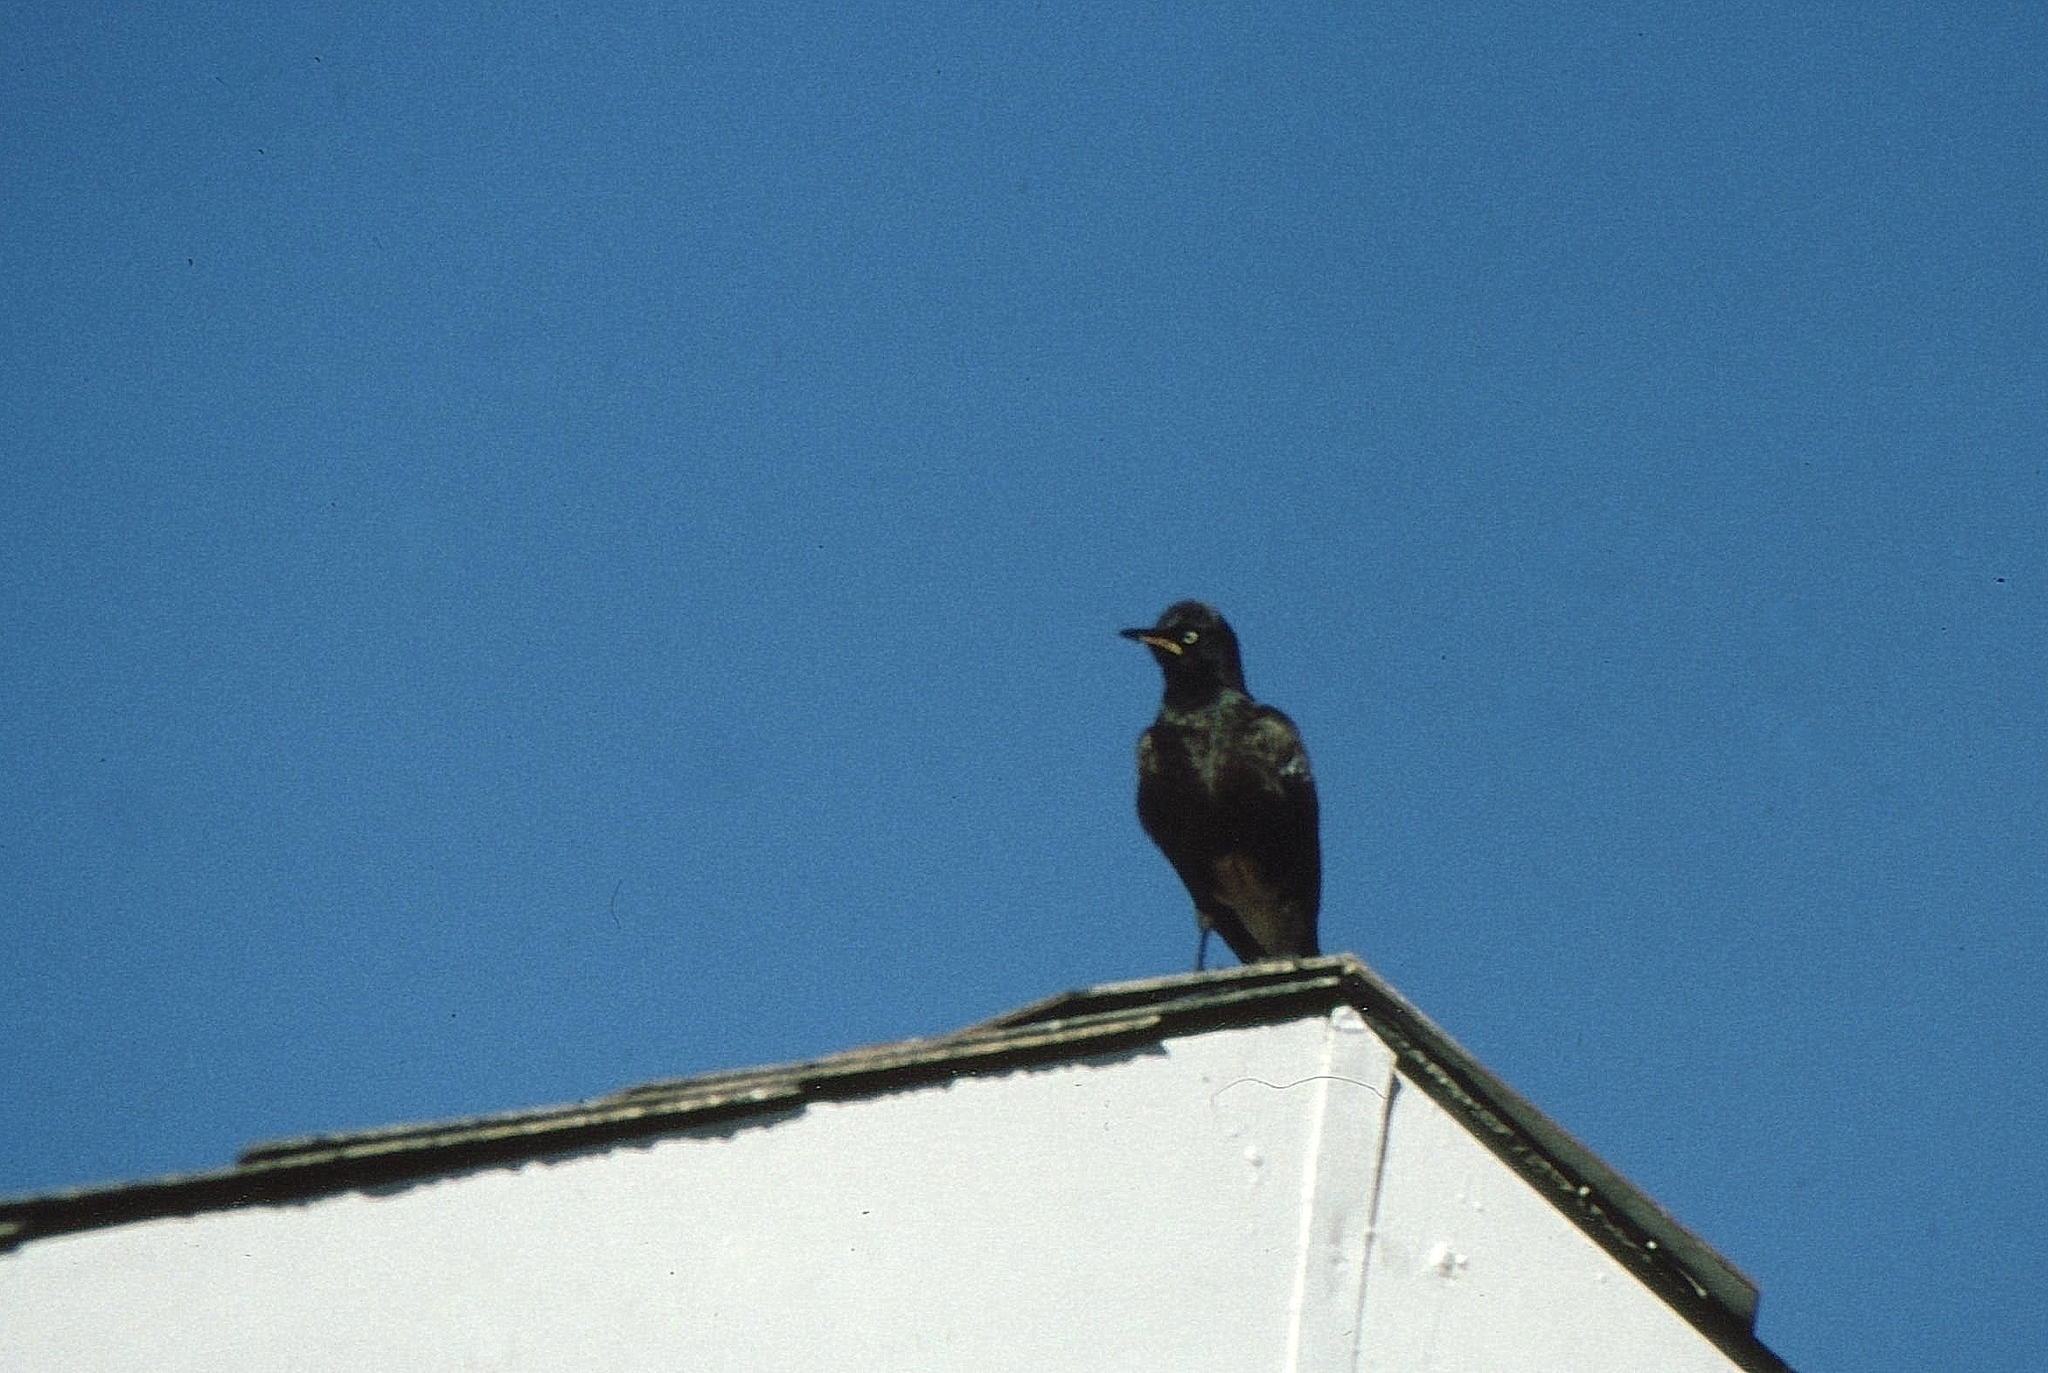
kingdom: Animalia
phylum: Chordata
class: Aves
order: Passeriformes
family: Sturnidae
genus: Lamprotornis
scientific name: Lamprotornis bicolor
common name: Pied starling
